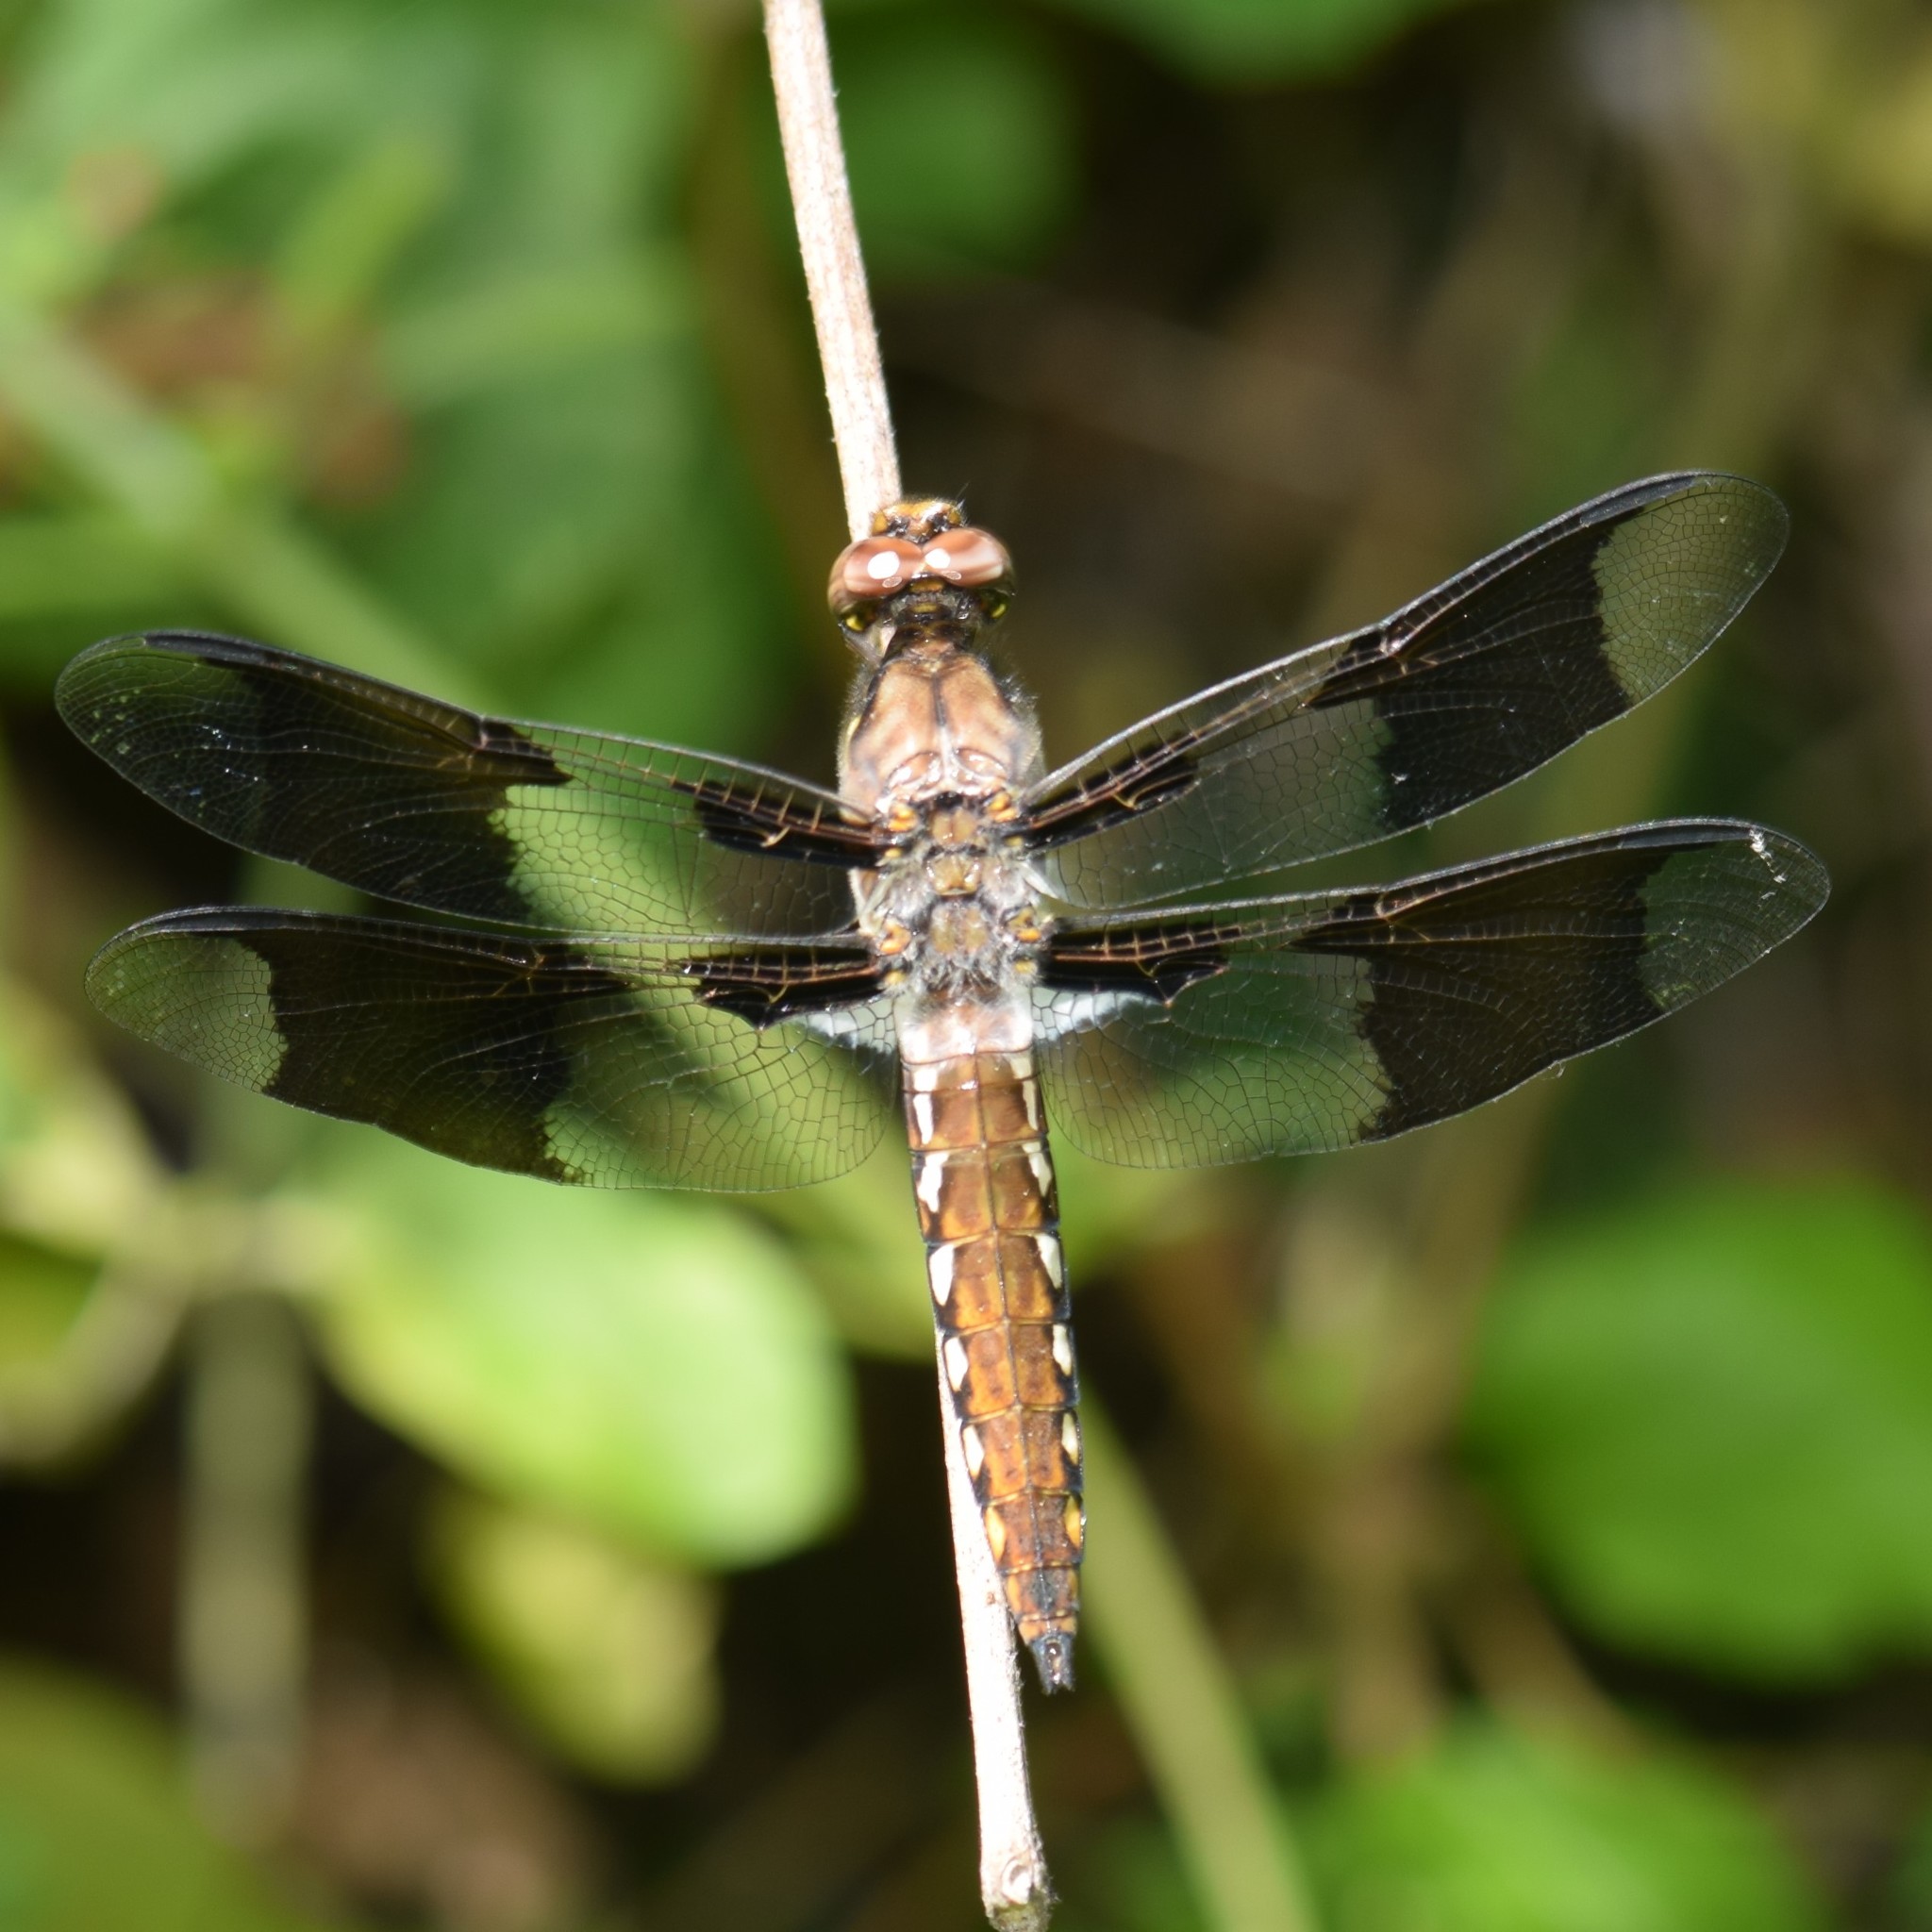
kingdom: Animalia
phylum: Arthropoda
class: Insecta
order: Odonata
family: Libellulidae
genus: Plathemis
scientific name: Plathemis lydia
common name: Common whitetail
